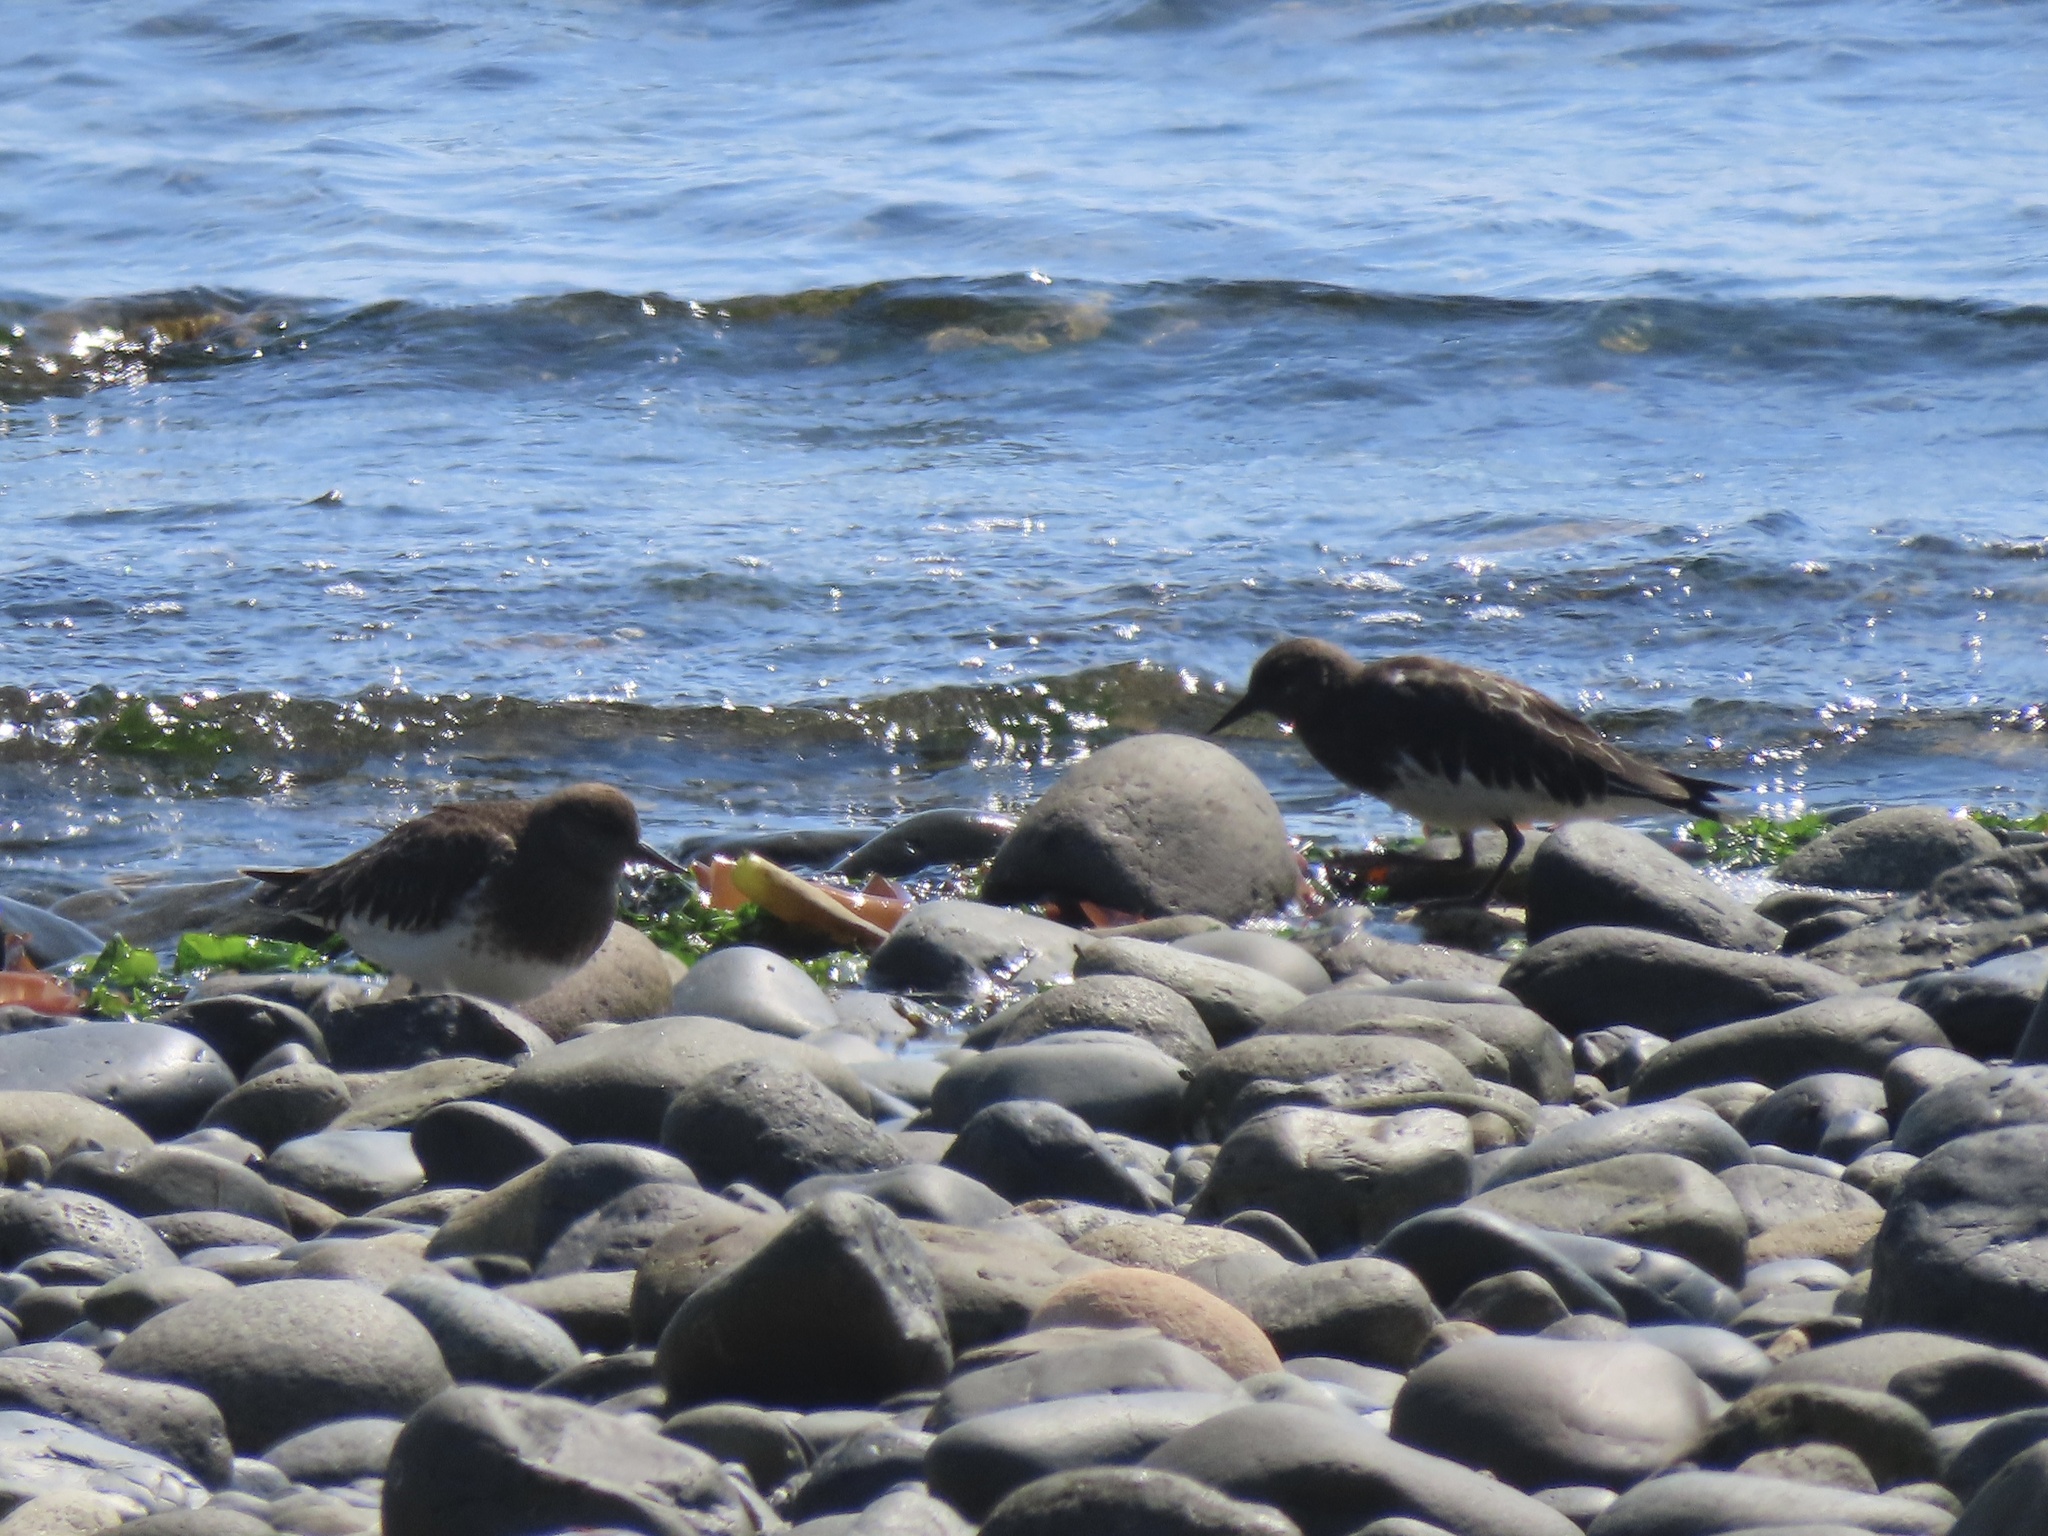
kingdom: Animalia
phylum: Chordata
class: Aves
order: Charadriiformes
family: Scolopacidae
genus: Arenaria
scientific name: Arenaria melanocephala
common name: Black turnstone
